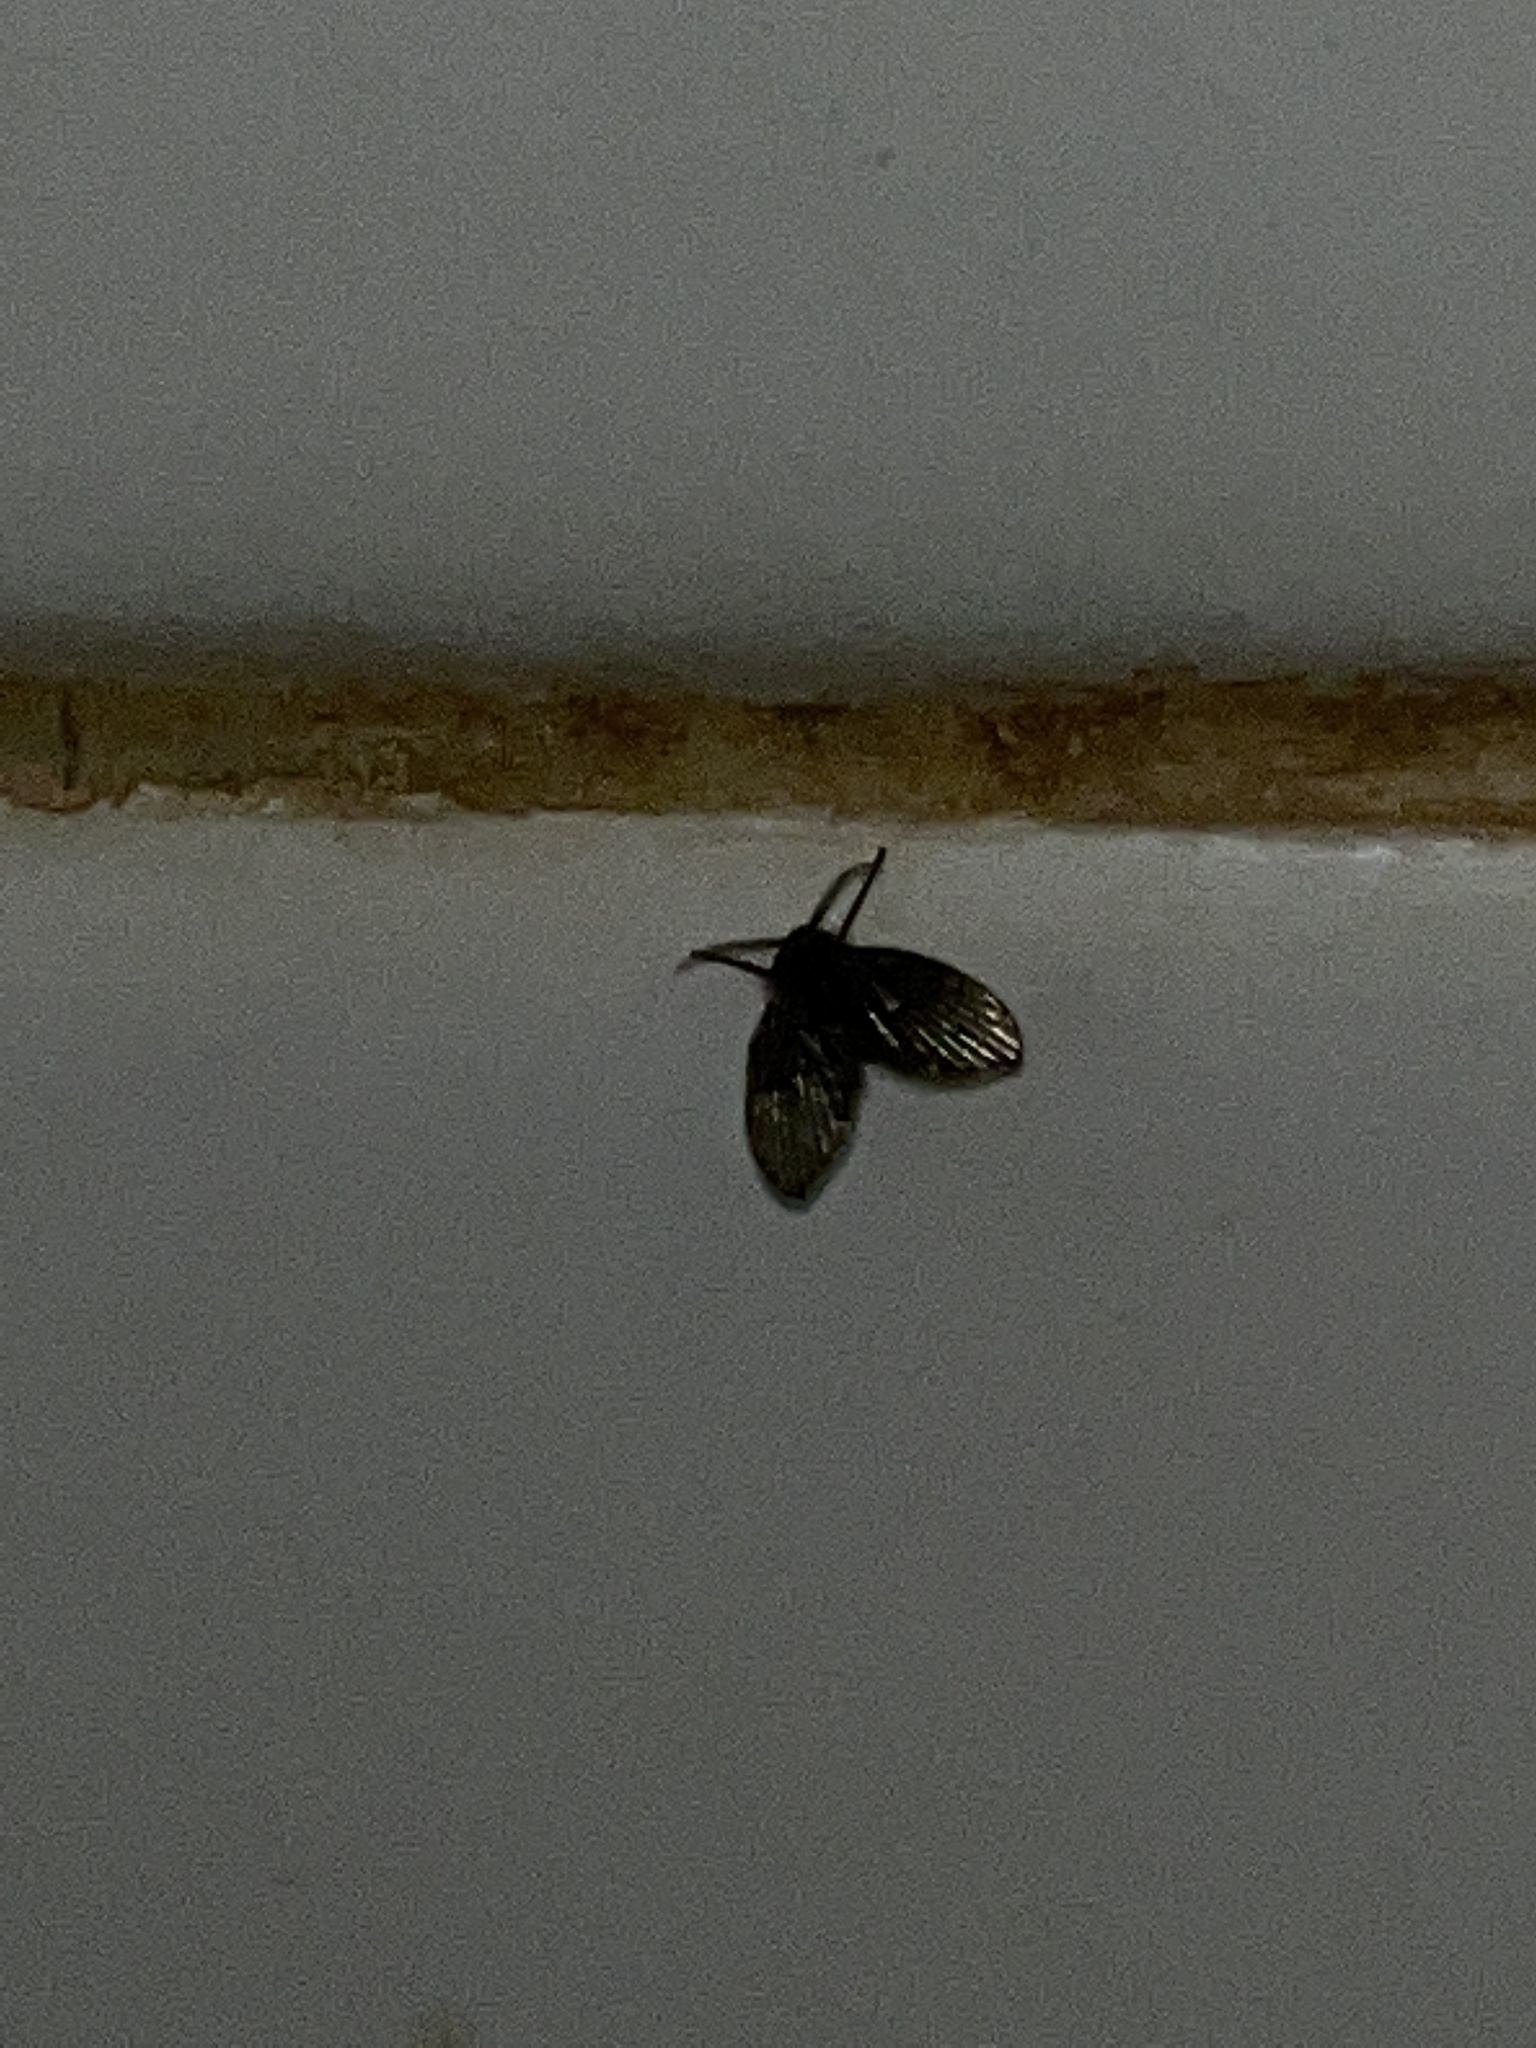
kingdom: Animalia
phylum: Arthropoda
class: Insecta
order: Diptera
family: Psychodidae
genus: Clogmia
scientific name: Clogmia albipunctatus
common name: White-spotted moth fly
